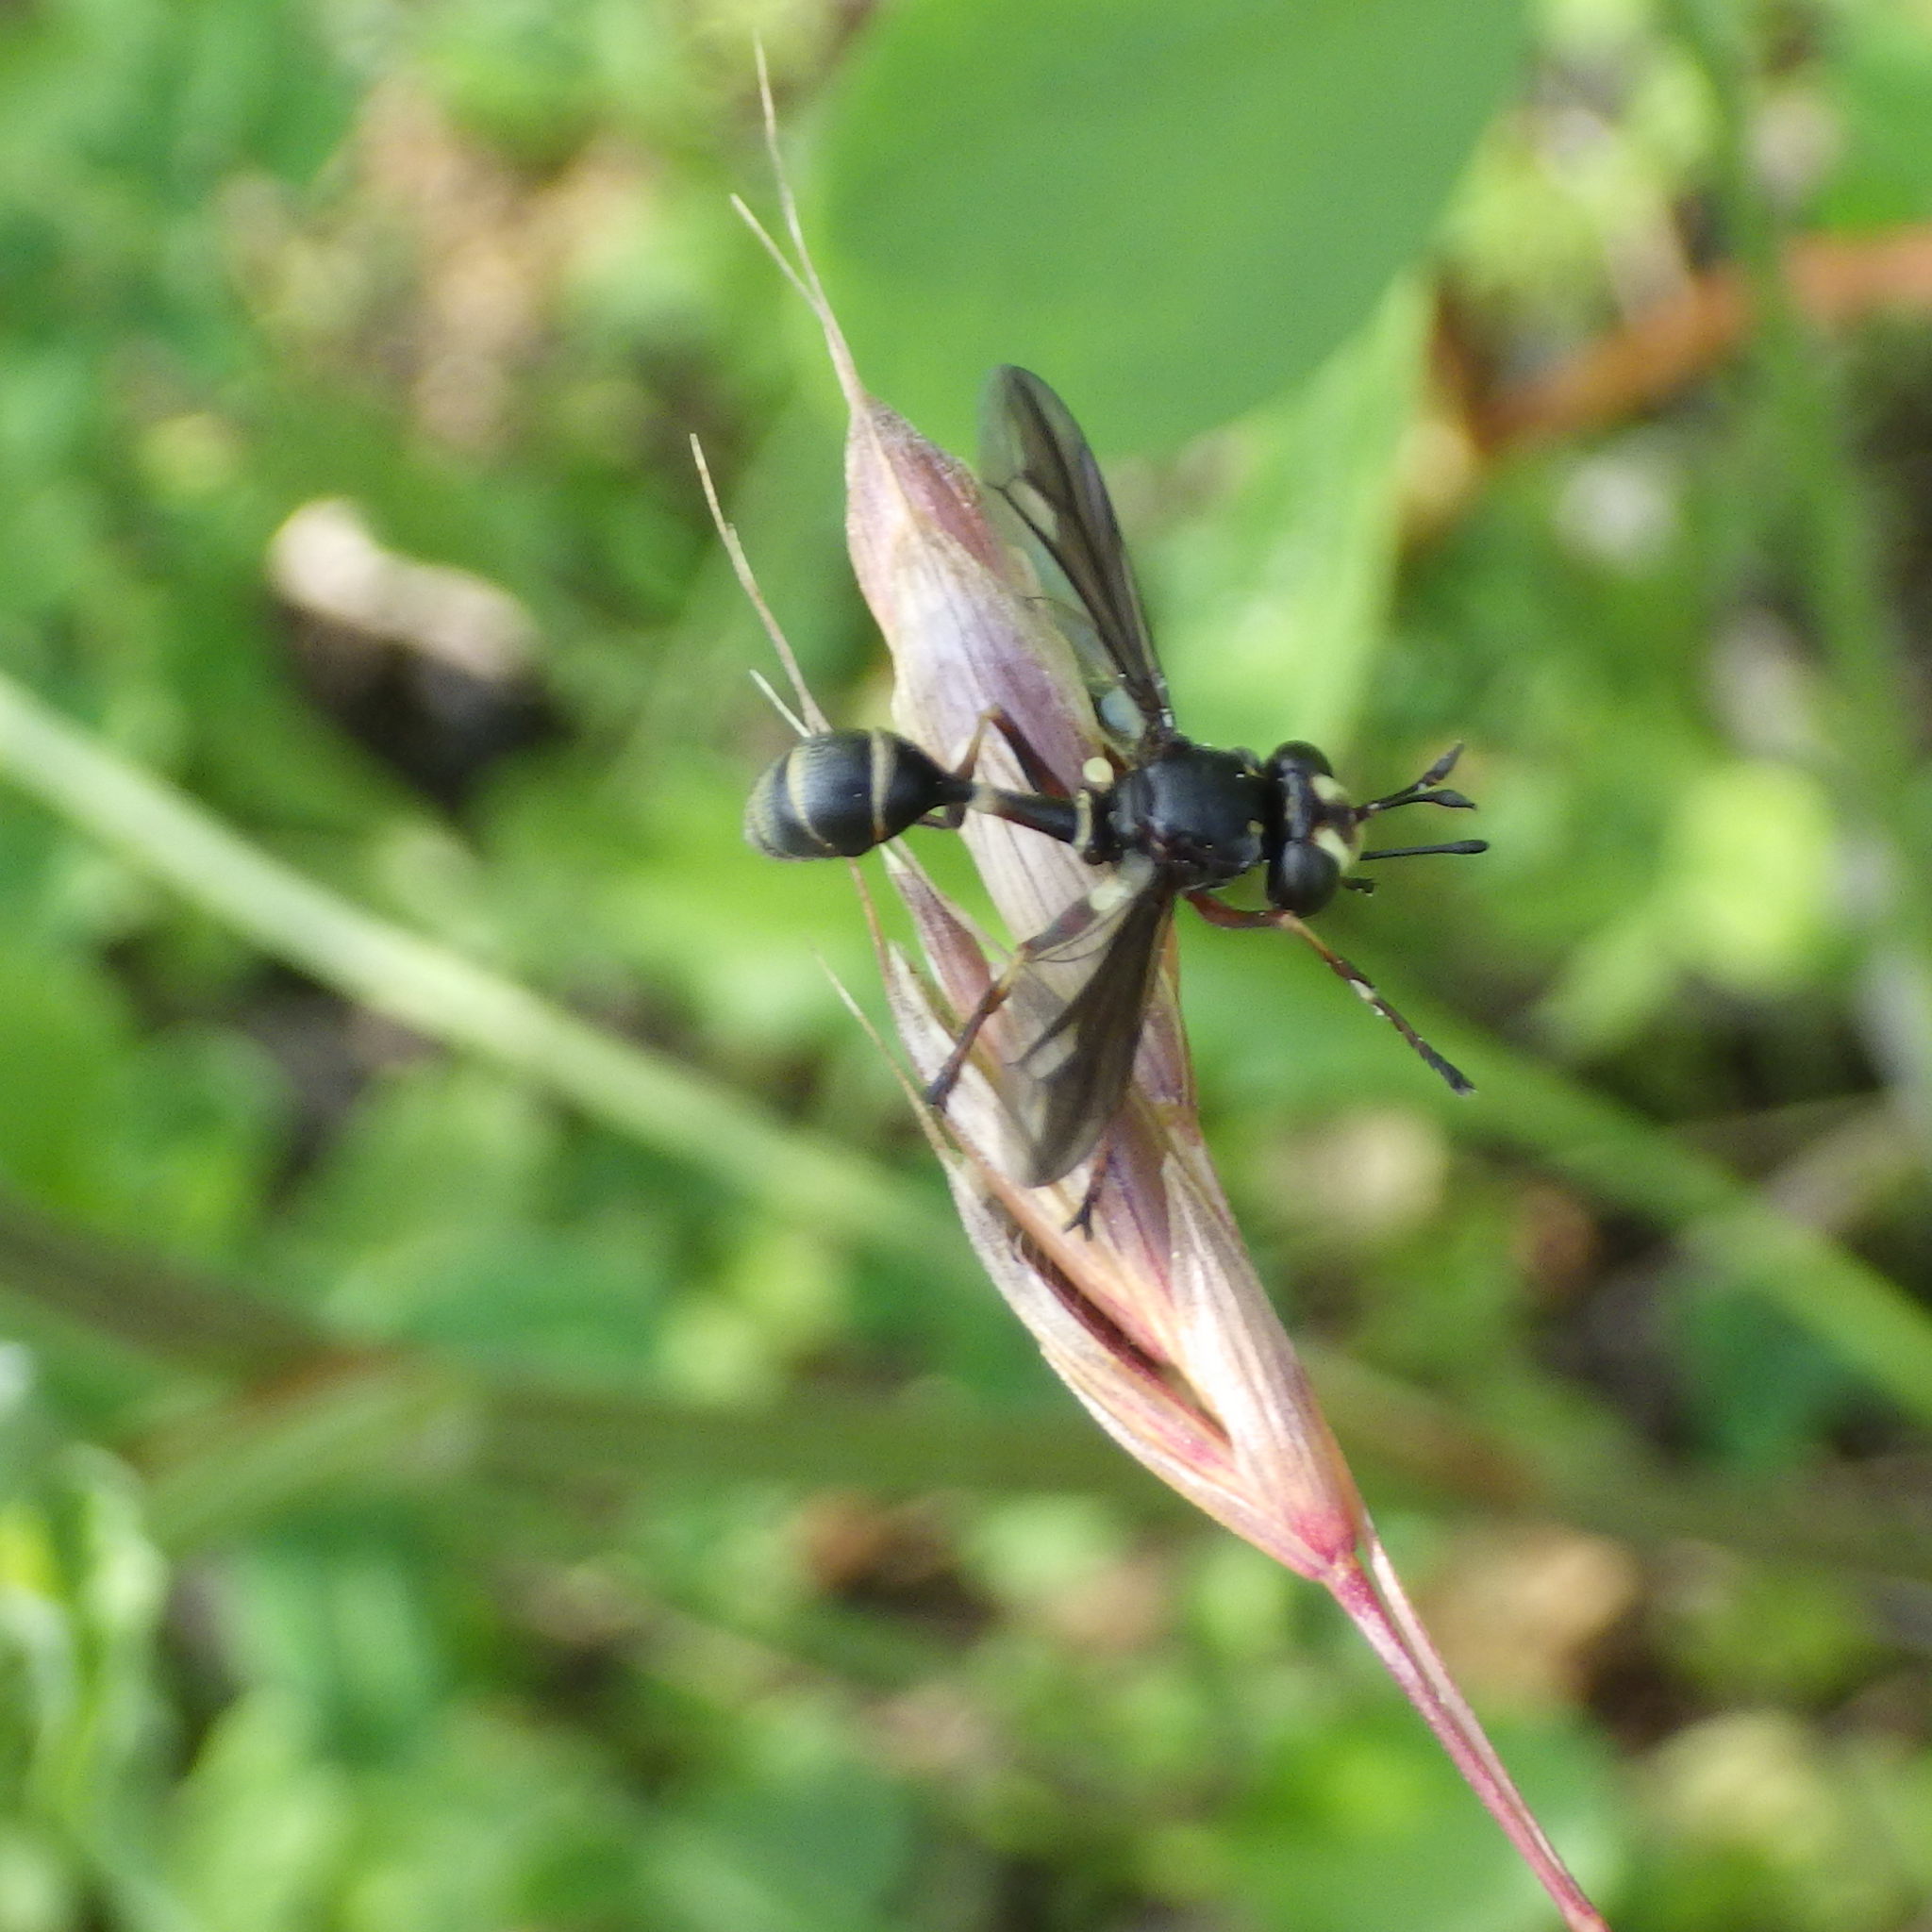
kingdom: Animalia
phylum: Arthropoda
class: Insecta
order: Diptera
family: Conopidae
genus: Physocephala
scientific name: Physocephala furcillata
